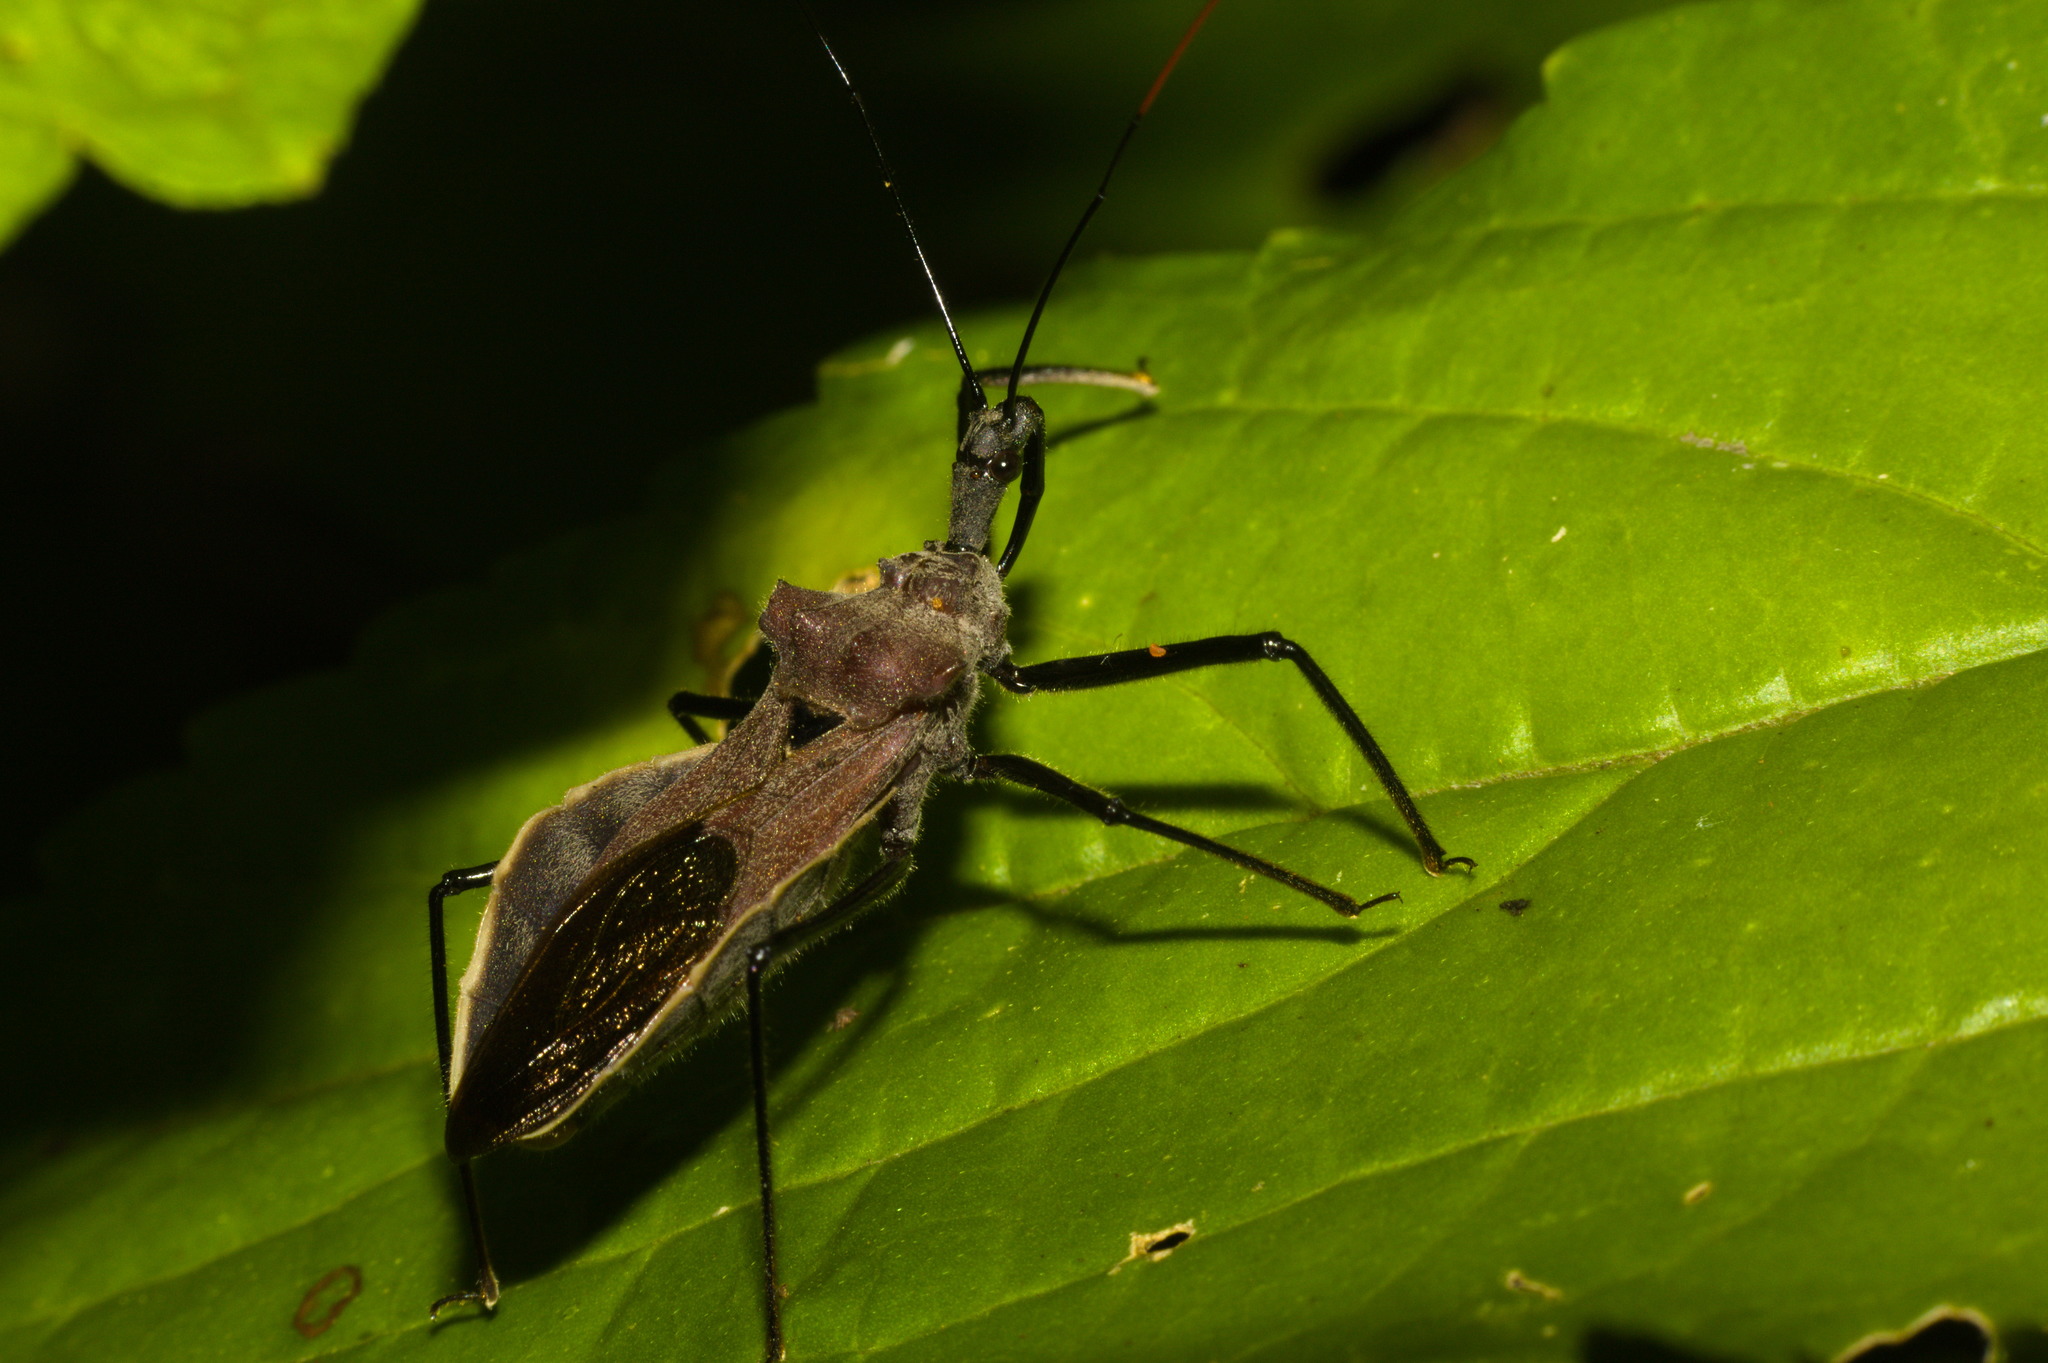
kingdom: Animalia
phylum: Arthropoda
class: Insecta
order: Hemiptera
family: Reduviidae
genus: Montina
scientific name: Montina nigripes
